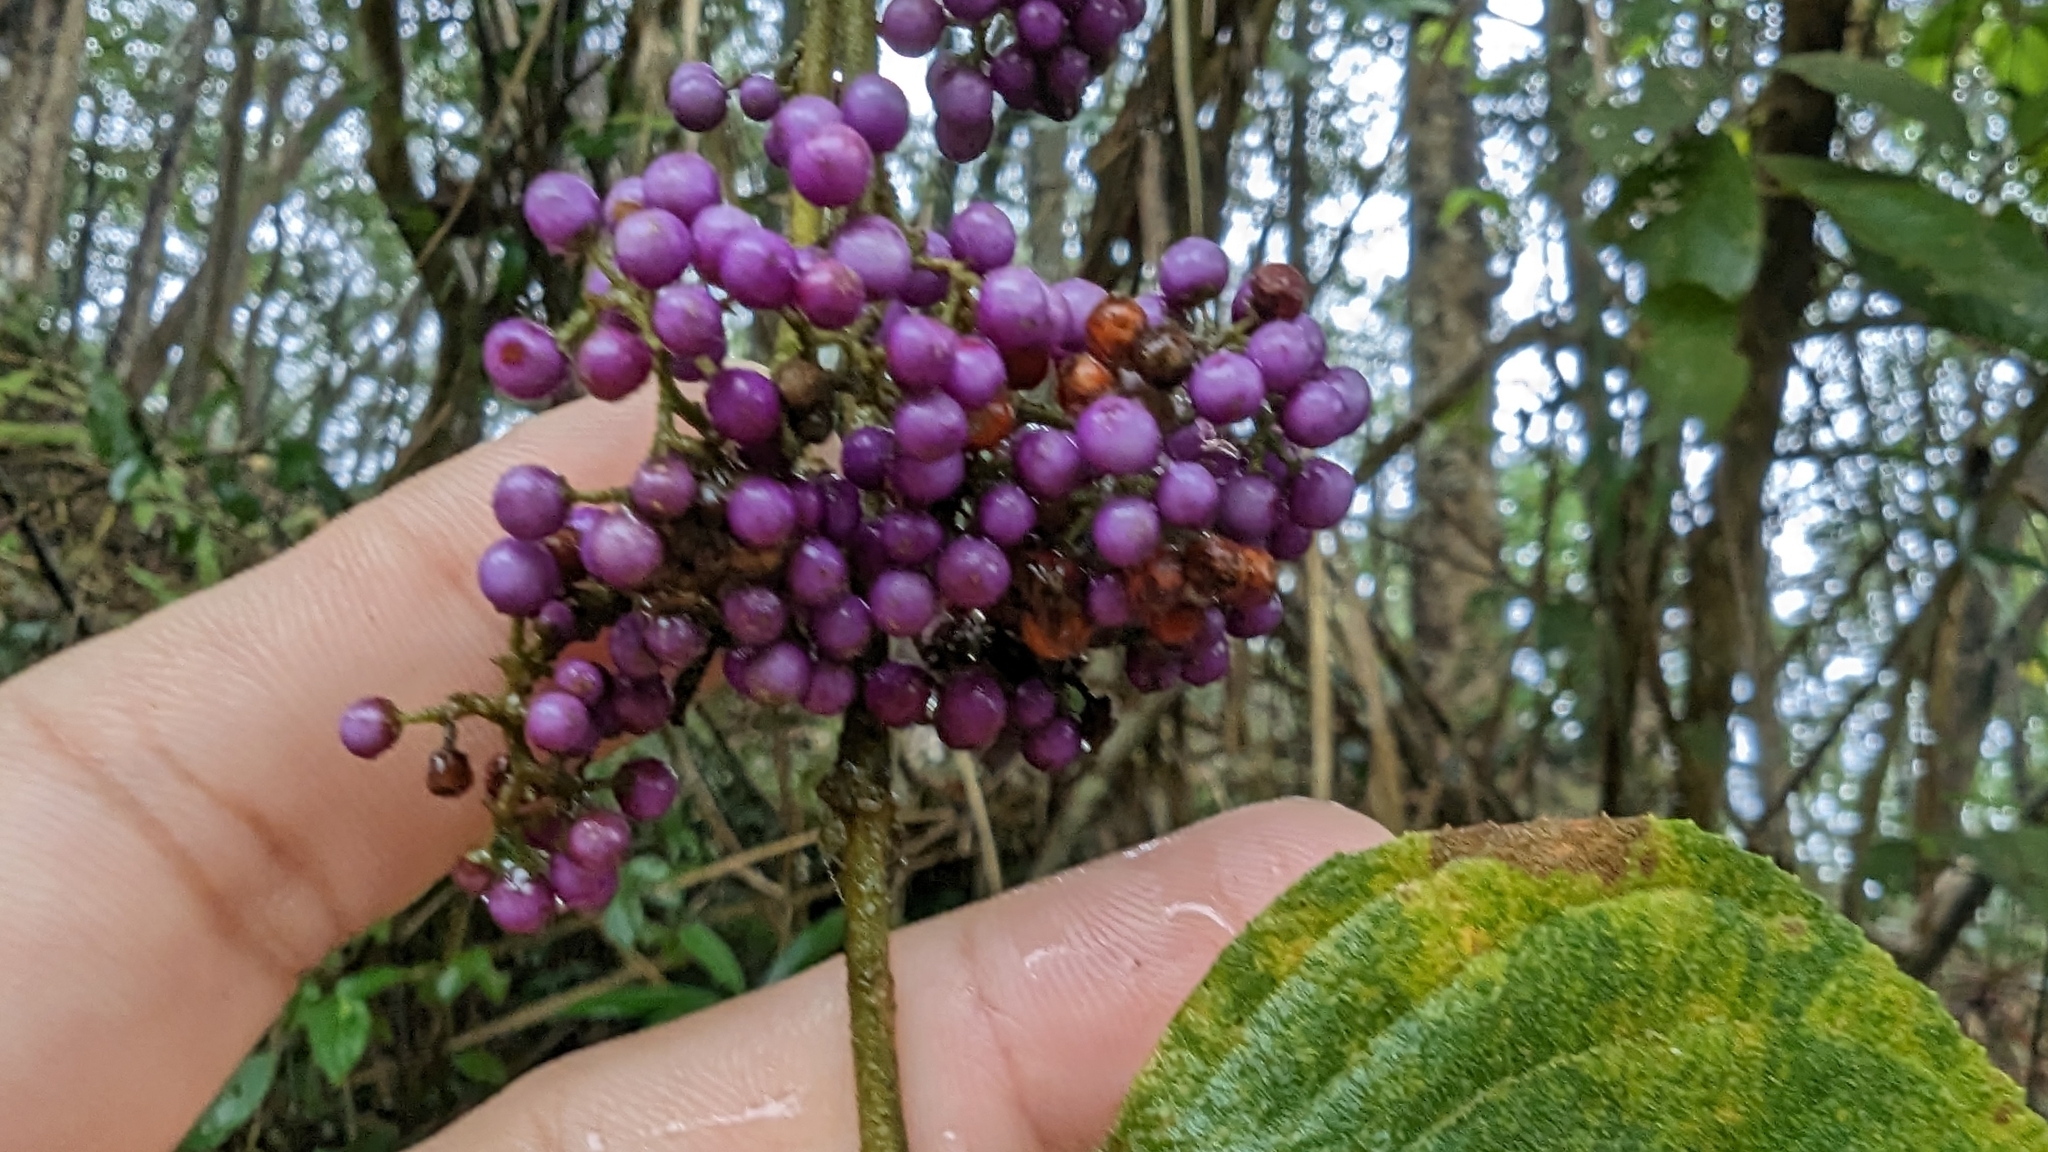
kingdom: Plantae
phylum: Tracheophyta
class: Magnoliopsida
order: Lamiales
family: Lamiaceae
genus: Callicarpa
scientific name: Callicarpa pedunculata
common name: Velvetleaf
